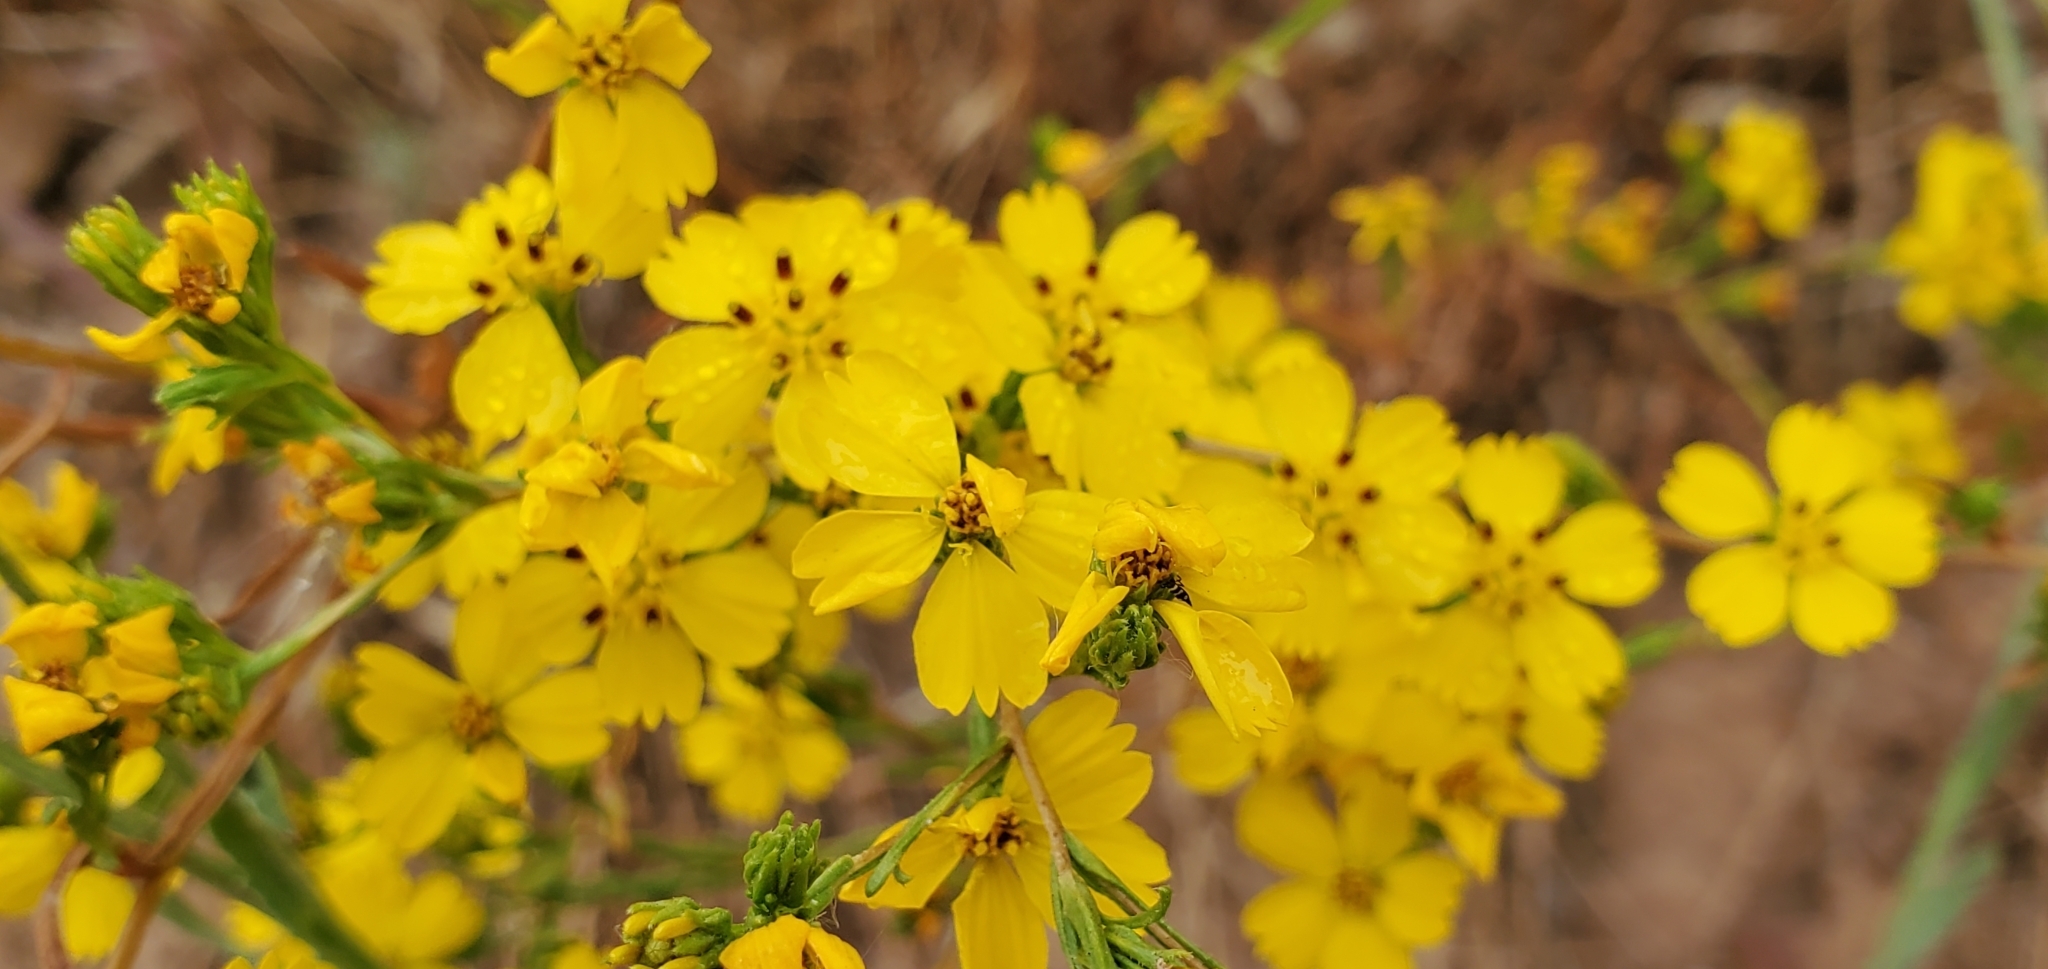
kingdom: Plantae
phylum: Tracheophyta
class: Magnoliopsida
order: Asterales
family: Asteraceae
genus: Deinandra
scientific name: Deinandra fasciculata
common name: Clustered tarweed
